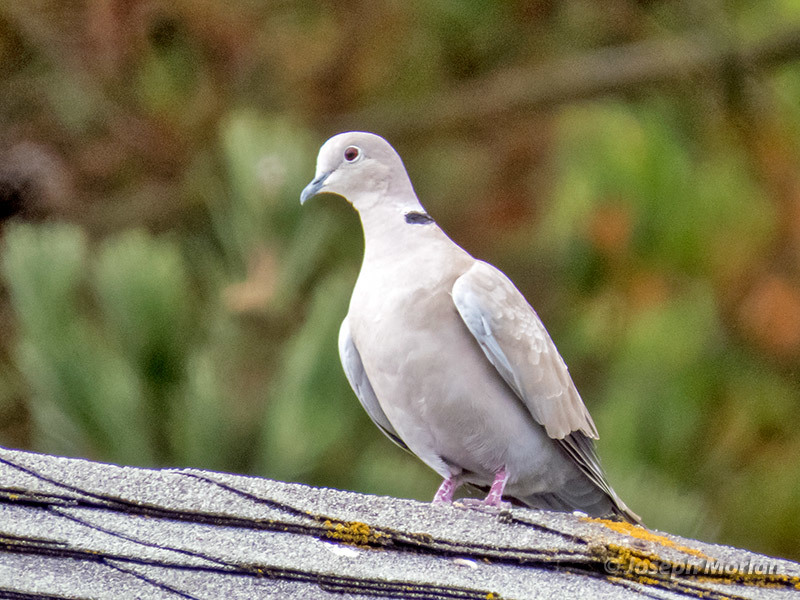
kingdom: Animalia
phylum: Chordata
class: Aves
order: Columbiformes
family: Columbidae
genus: Streptopelia
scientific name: Streptopelia decaocto
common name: Eurasian collared dove
